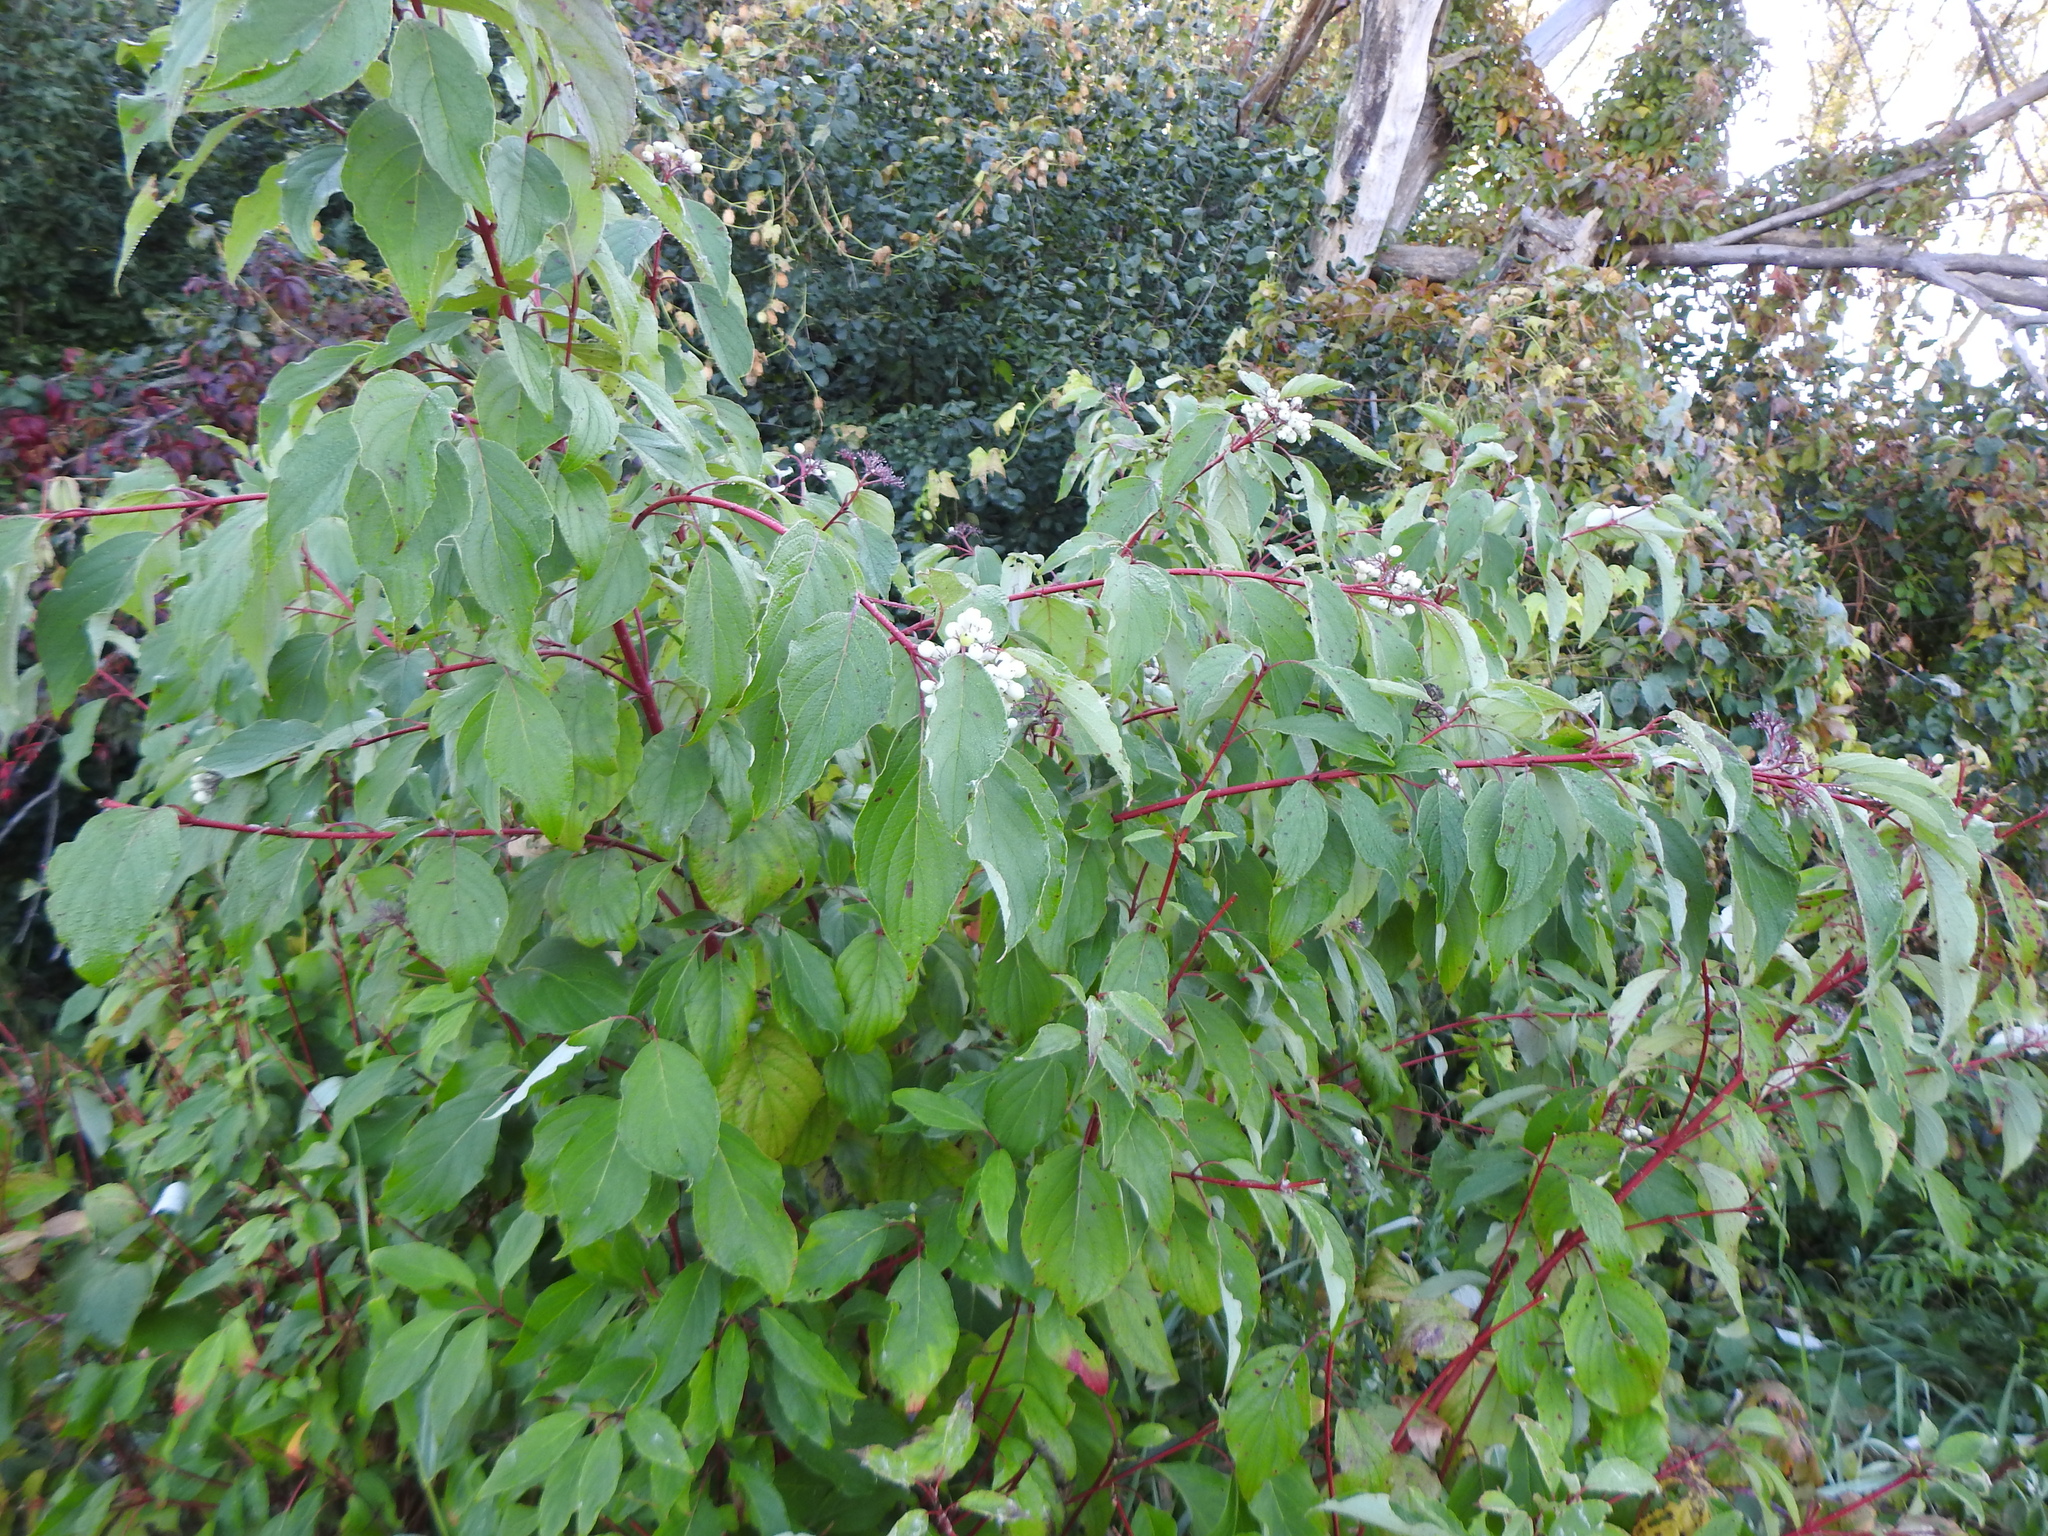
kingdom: Plantae
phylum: Tracheophyta
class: Magnoliopsida
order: Cornales
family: Cornaceae
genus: Cornus
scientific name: Cornus sericea
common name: Red-osier dogwood
